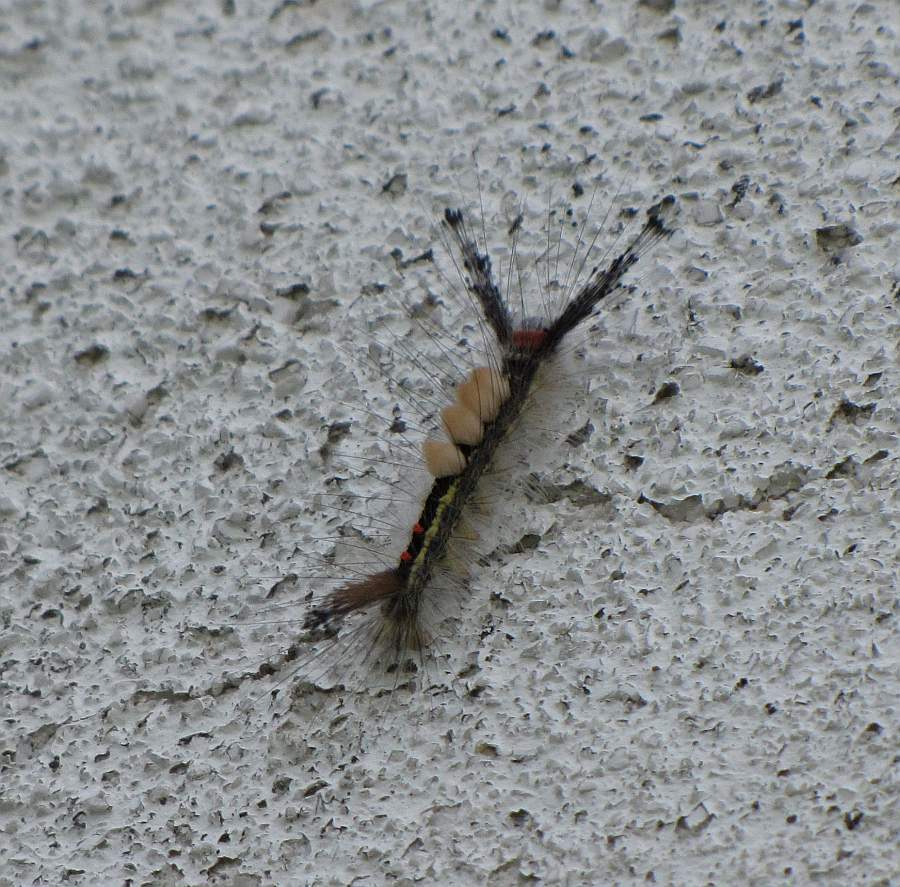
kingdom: Animalia
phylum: Arthropoda
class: Insecta
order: Lepidoptera
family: Erebidae
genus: Orgyia
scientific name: Orgyia leucostigma
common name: White-marked tussock moth
